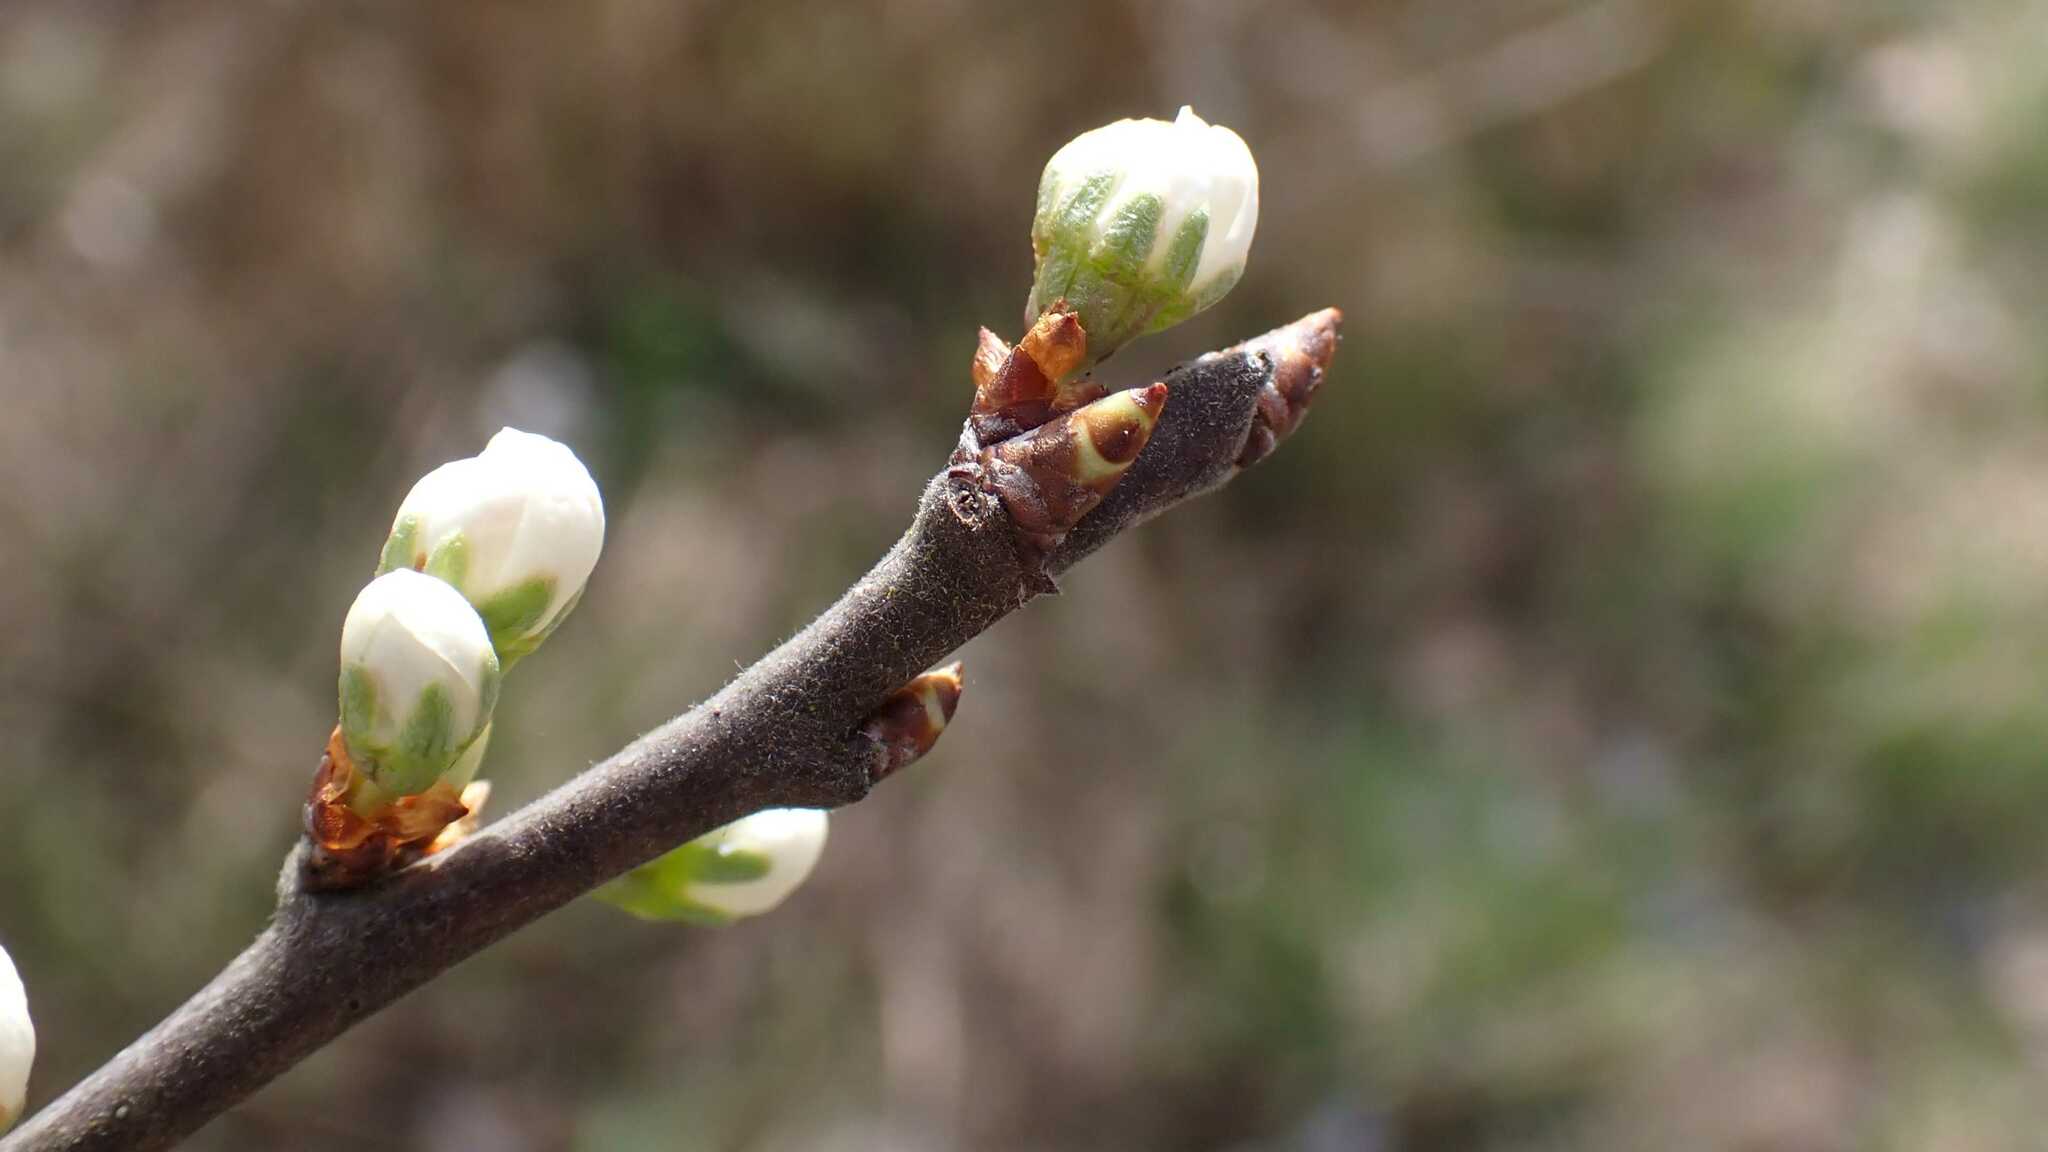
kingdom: Plantae
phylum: Tracheophyta
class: Magnoliopsida
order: Rosales
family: Rosaceae
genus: Prunus
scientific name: Prunus spinosa
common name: Blackthorn
